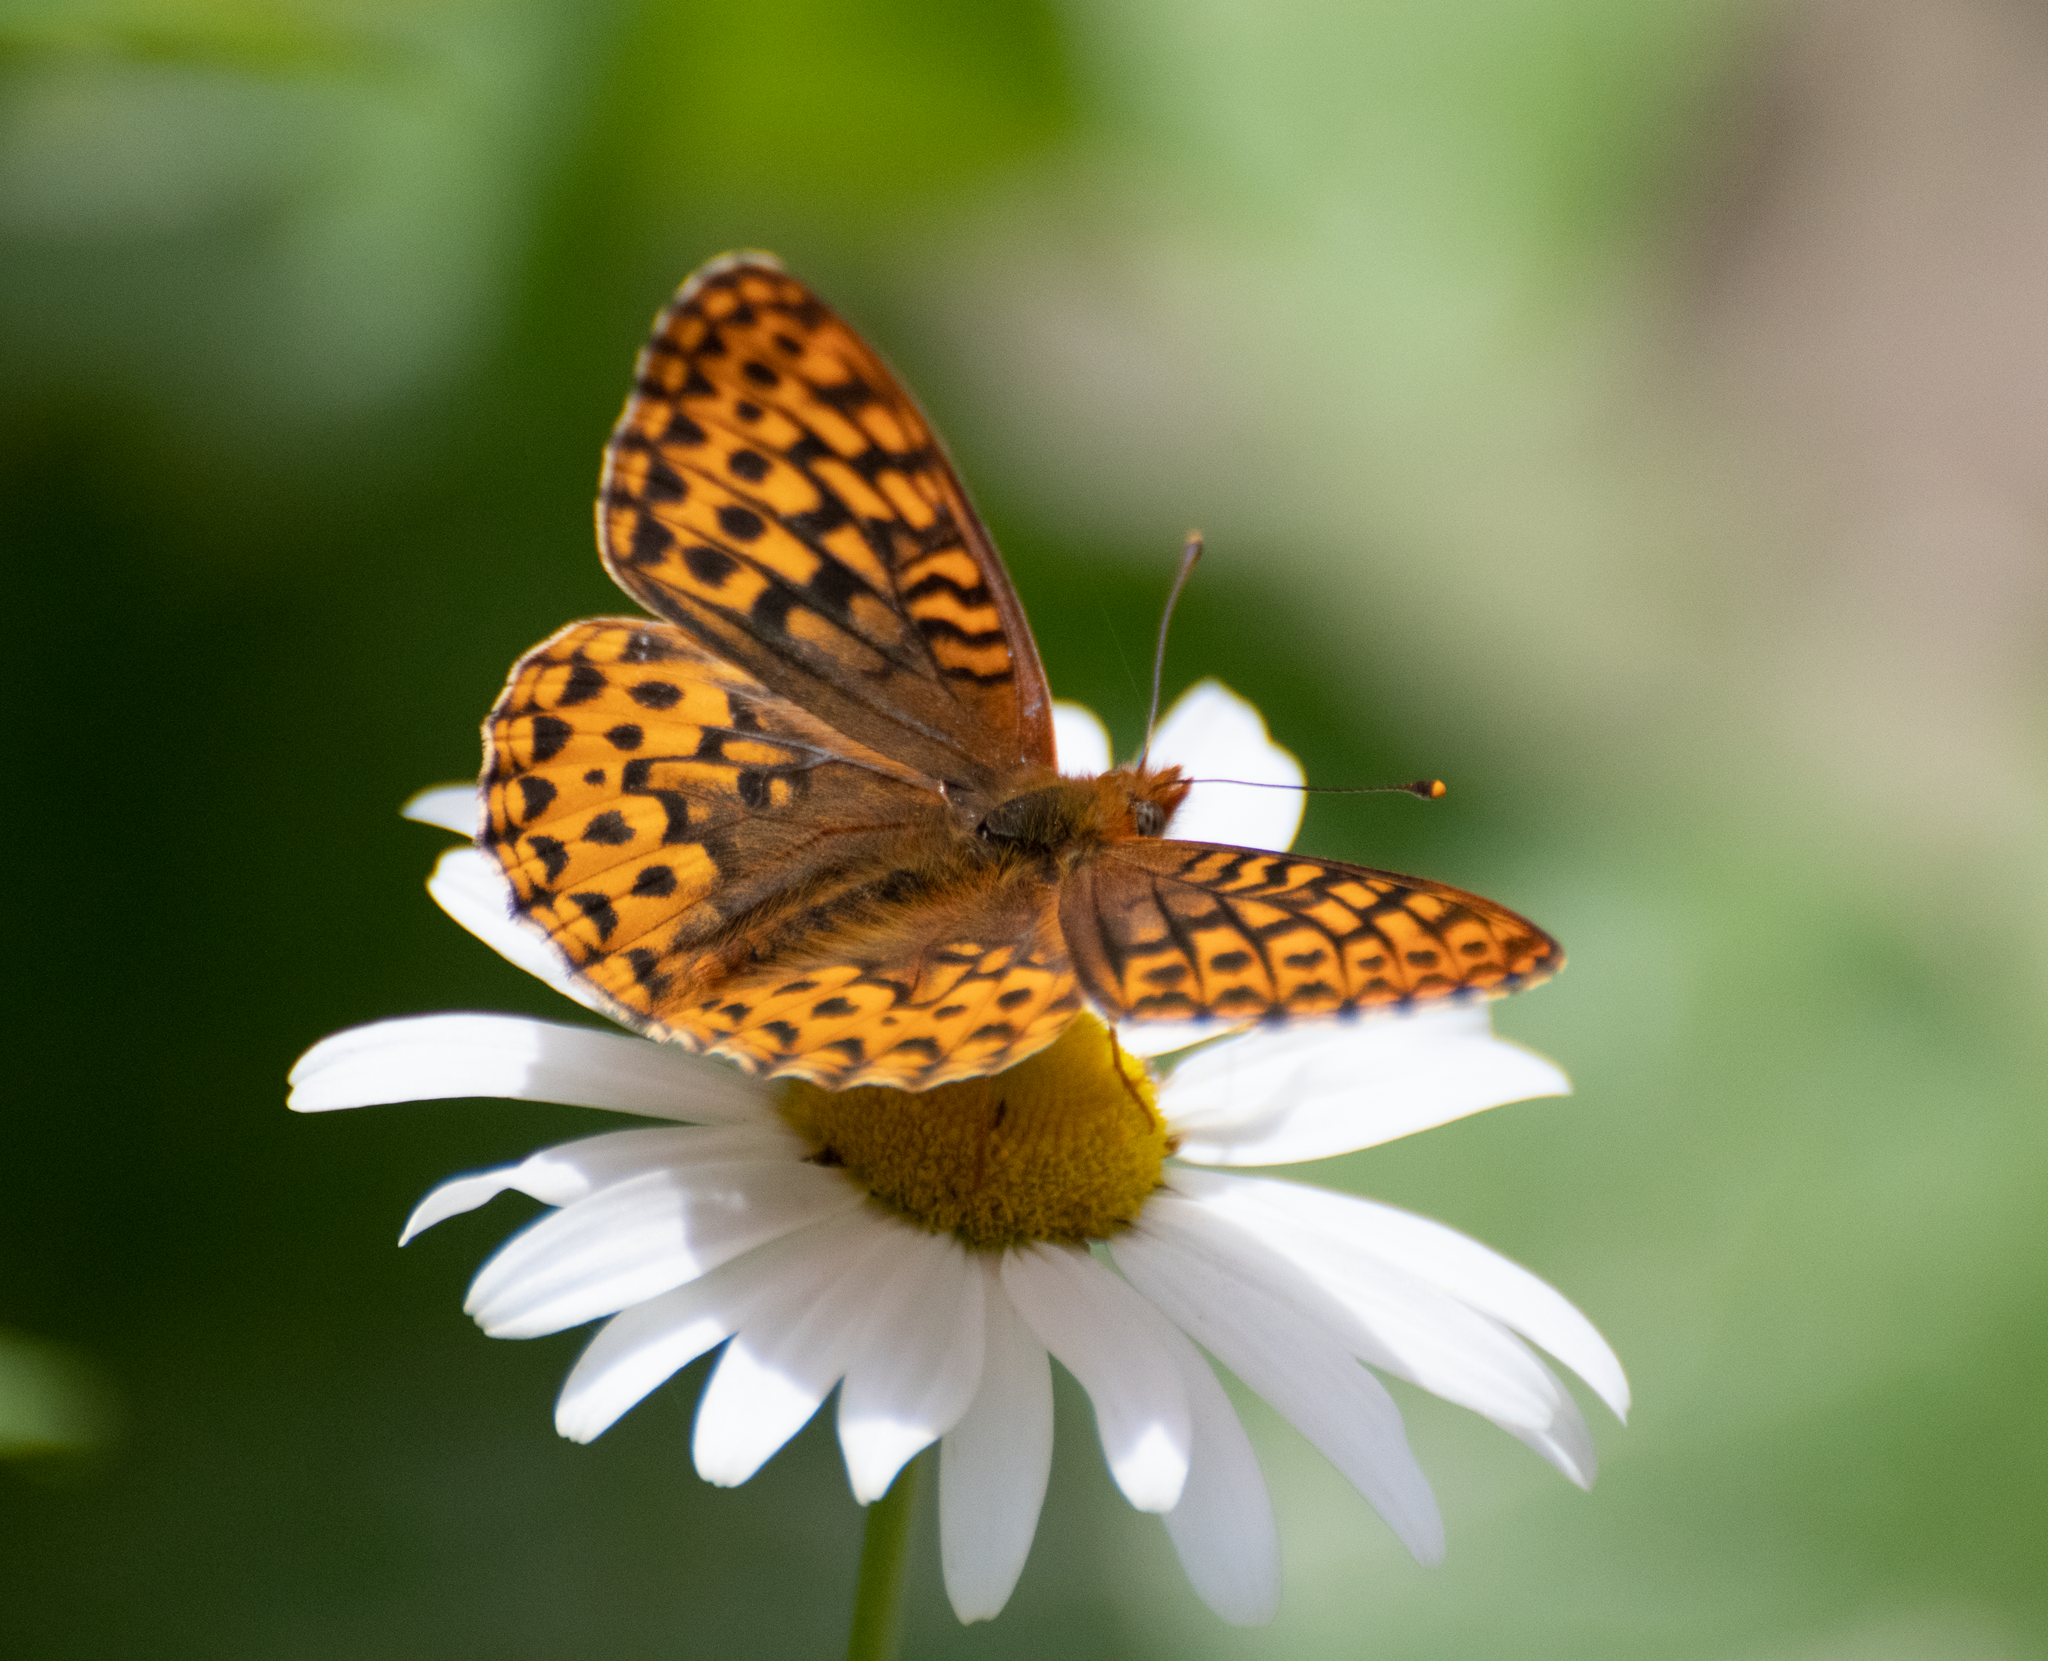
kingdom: Animalia
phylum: Arthropoda
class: Insecta
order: Lepidoptera
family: Nymphalidae
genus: Speyeria
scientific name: Speyeria hydaspe
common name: Hydaspe fritillary
